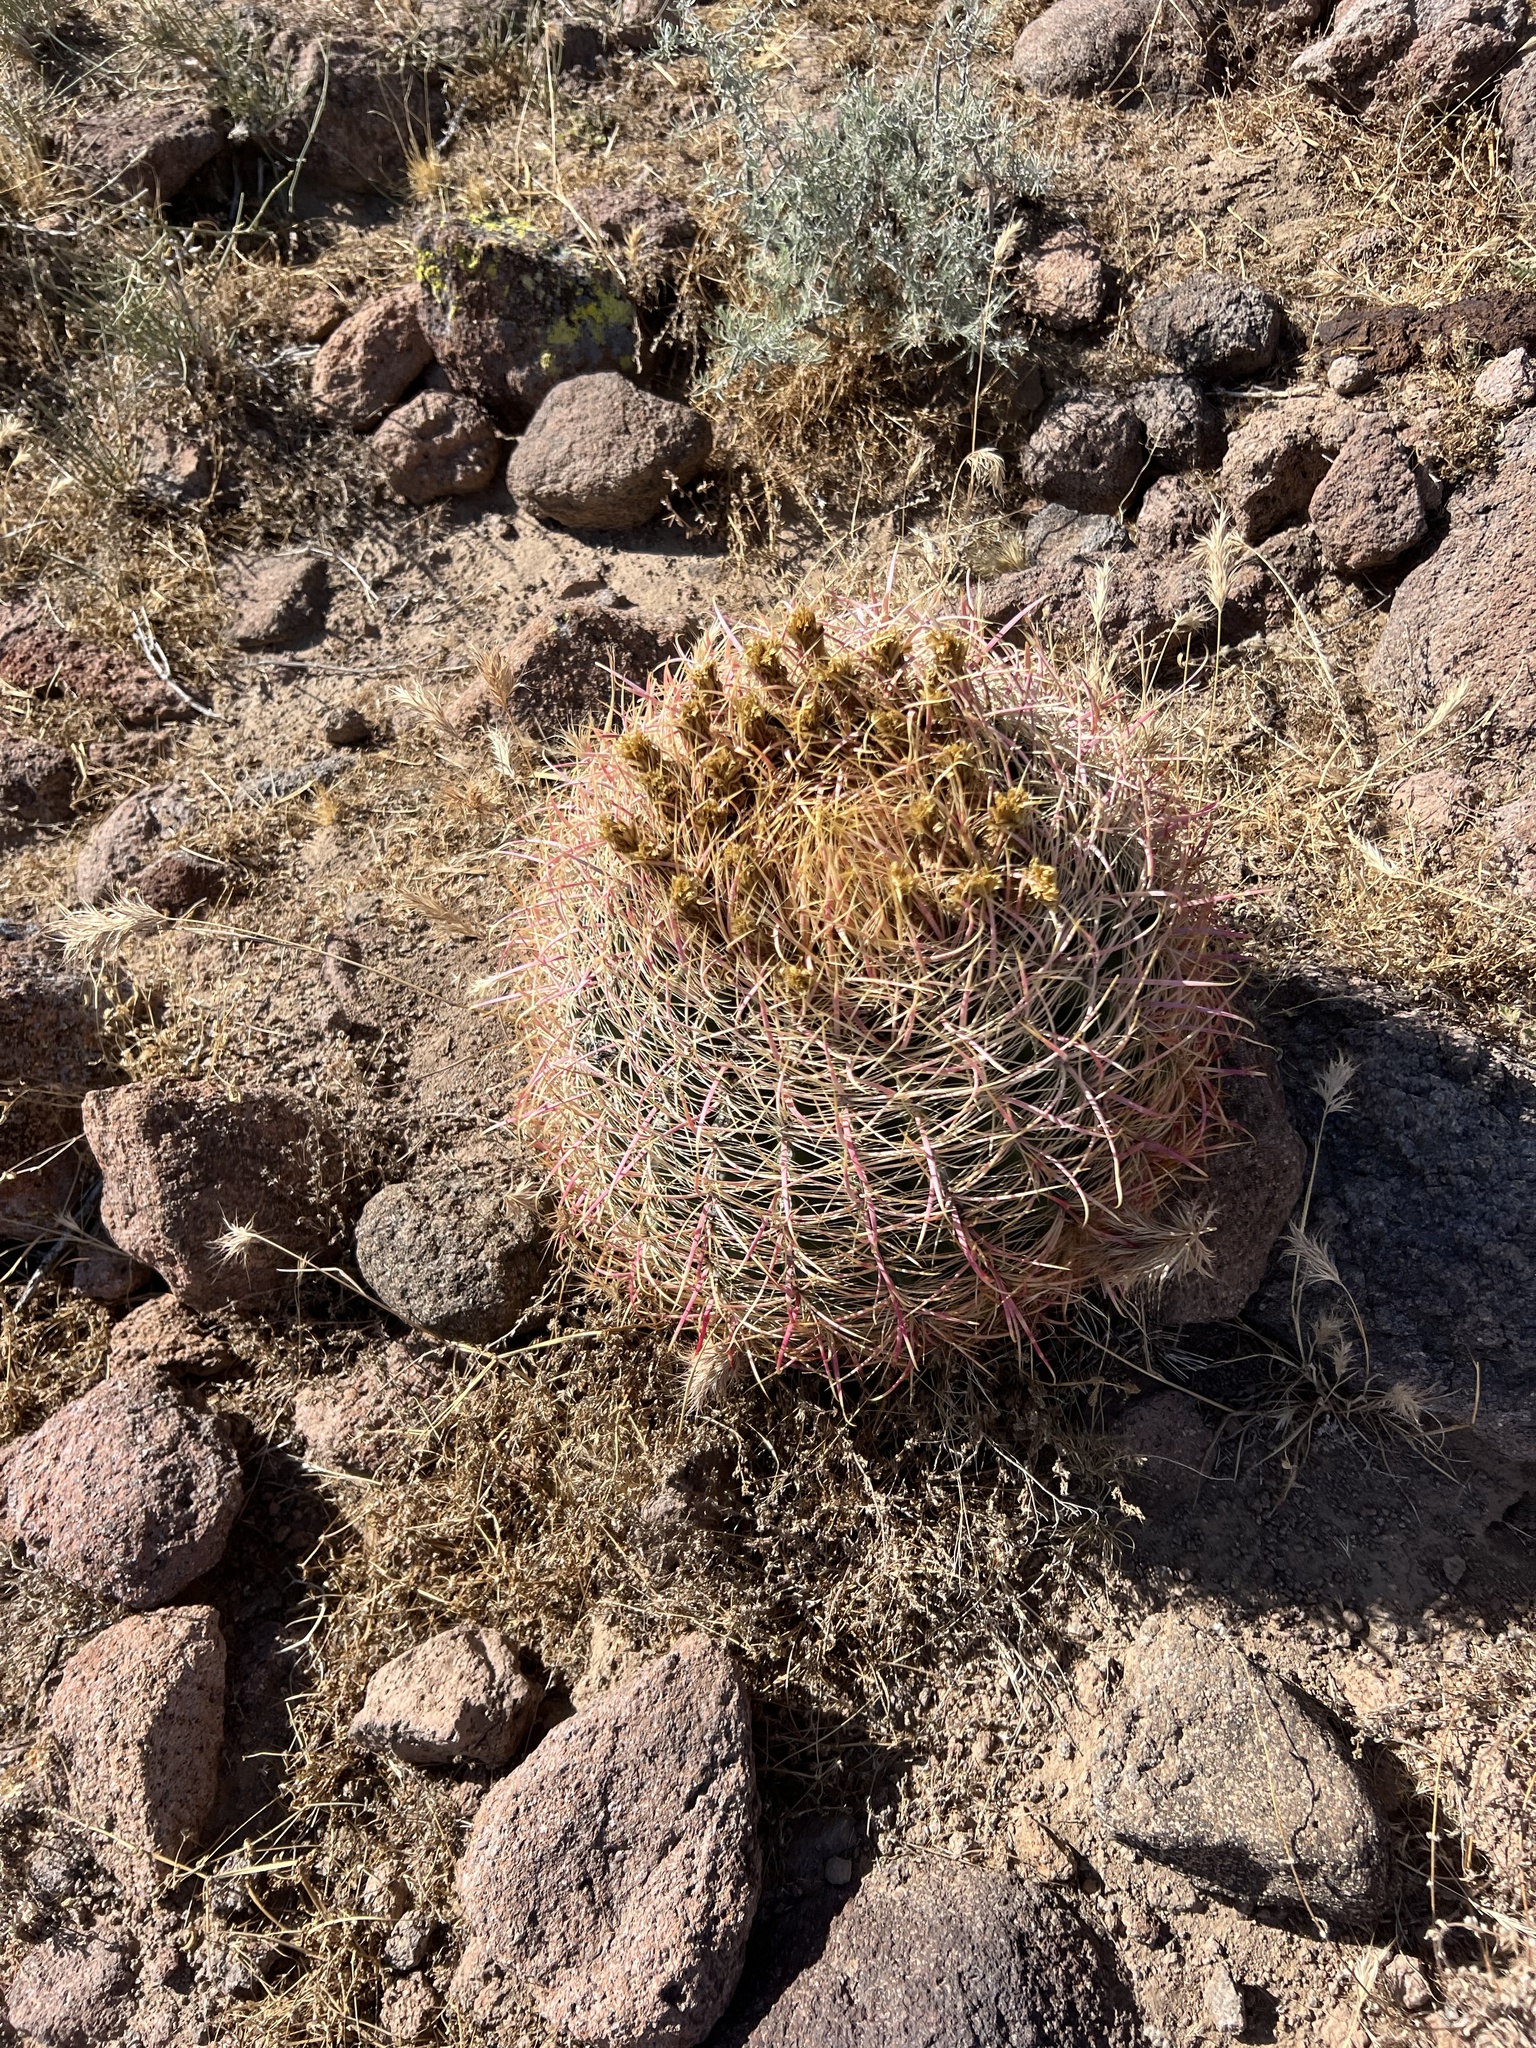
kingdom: Plantae
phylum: Tracheophyta
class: Magnoliopsida
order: Caryophyllales
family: Cactaceae
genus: Ferocactus
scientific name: Ferocactus cylindraceus
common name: California barrel cactus
